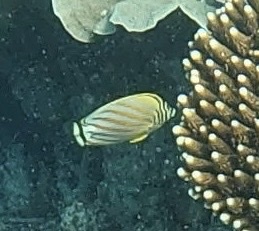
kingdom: Animalia
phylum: Chordata
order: Perciformes
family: Chaetodontidae
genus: Chaetodon
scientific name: Chaetodon ornatissimus
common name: Ornate butterflyfish
